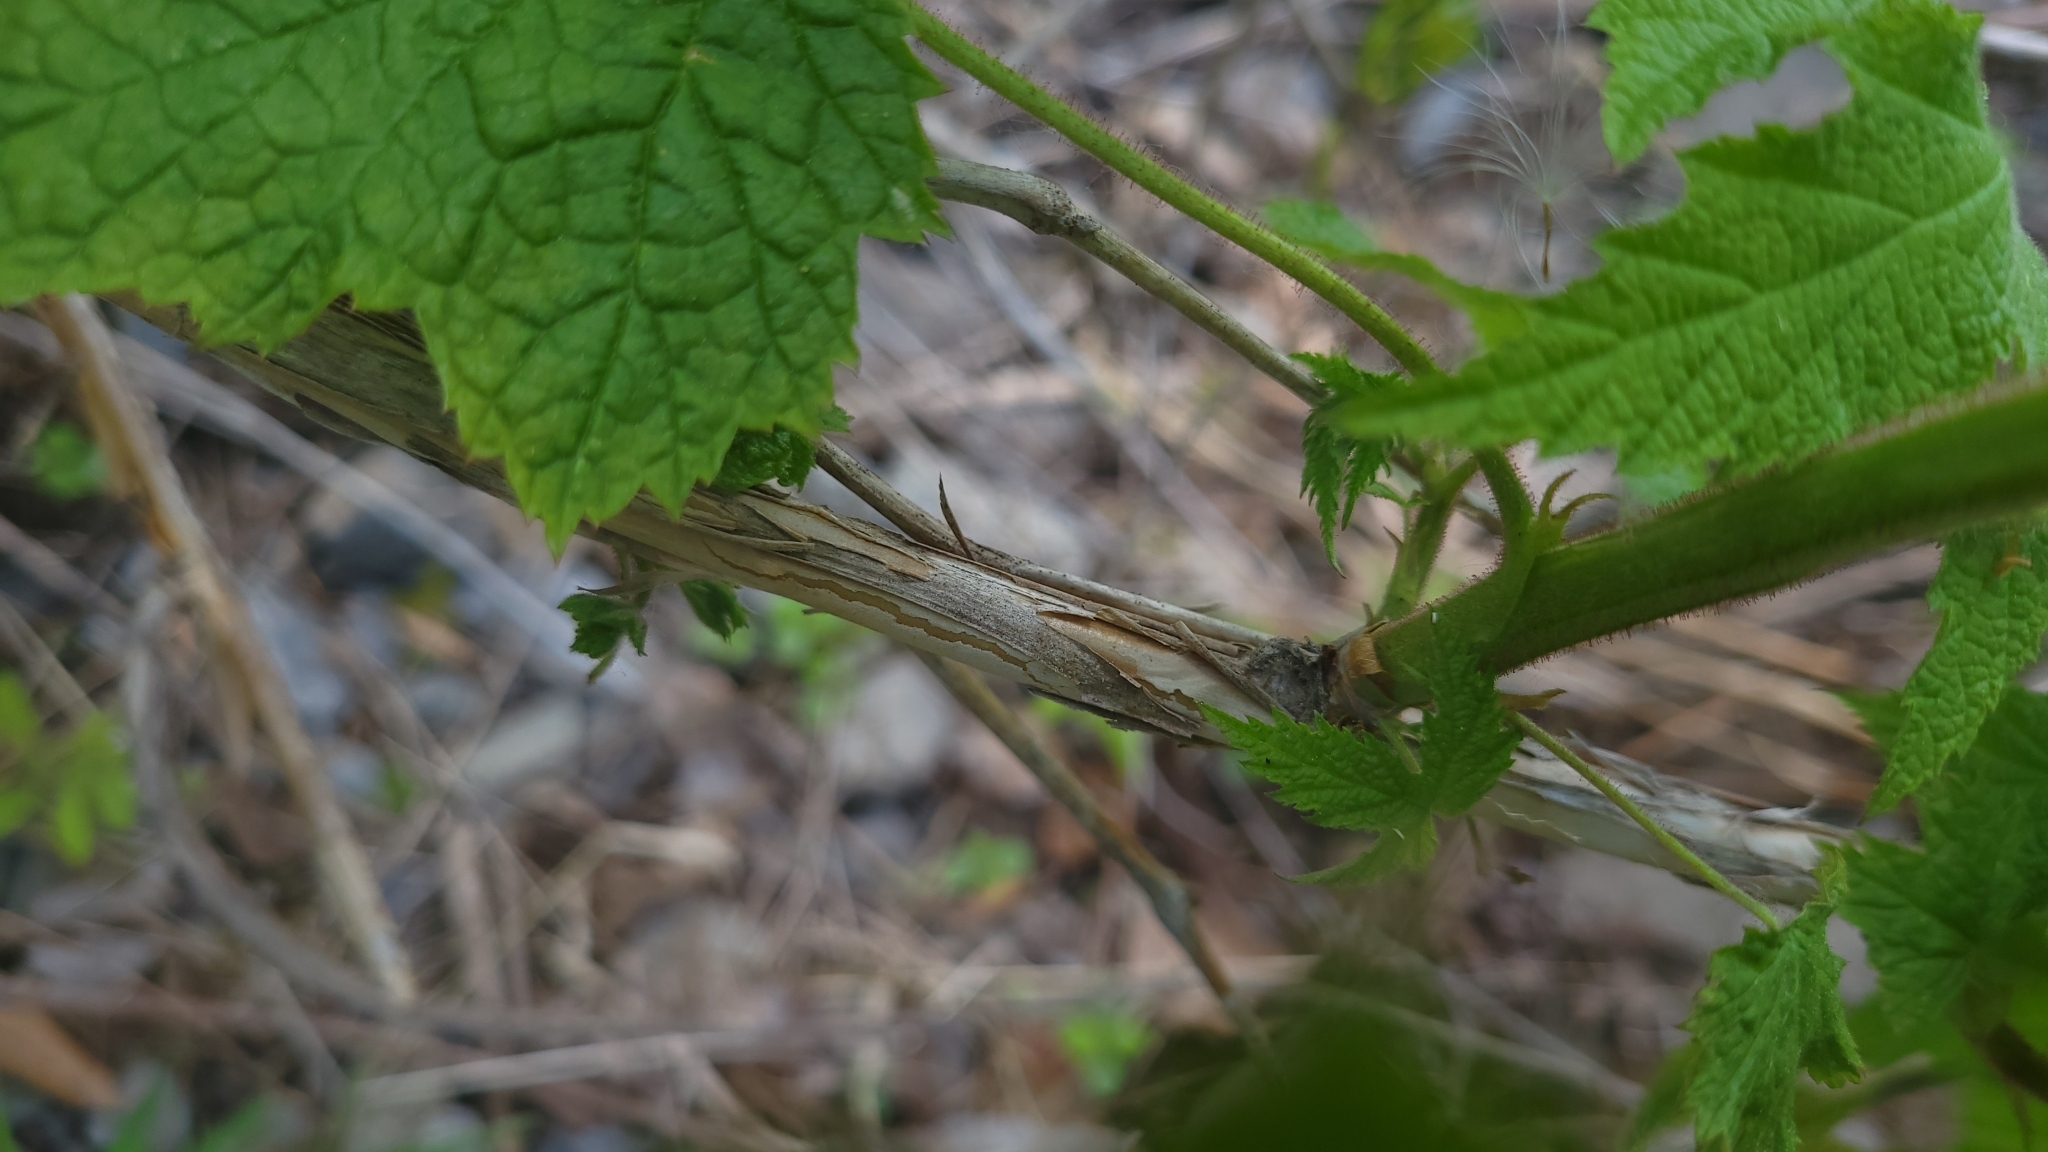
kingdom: Plantae
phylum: Tracheophyta
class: Magnoliopsida
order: Rosales
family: Rosaceae
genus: Rubus
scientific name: Rubus odoratus
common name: Purple-flowered raspberry
